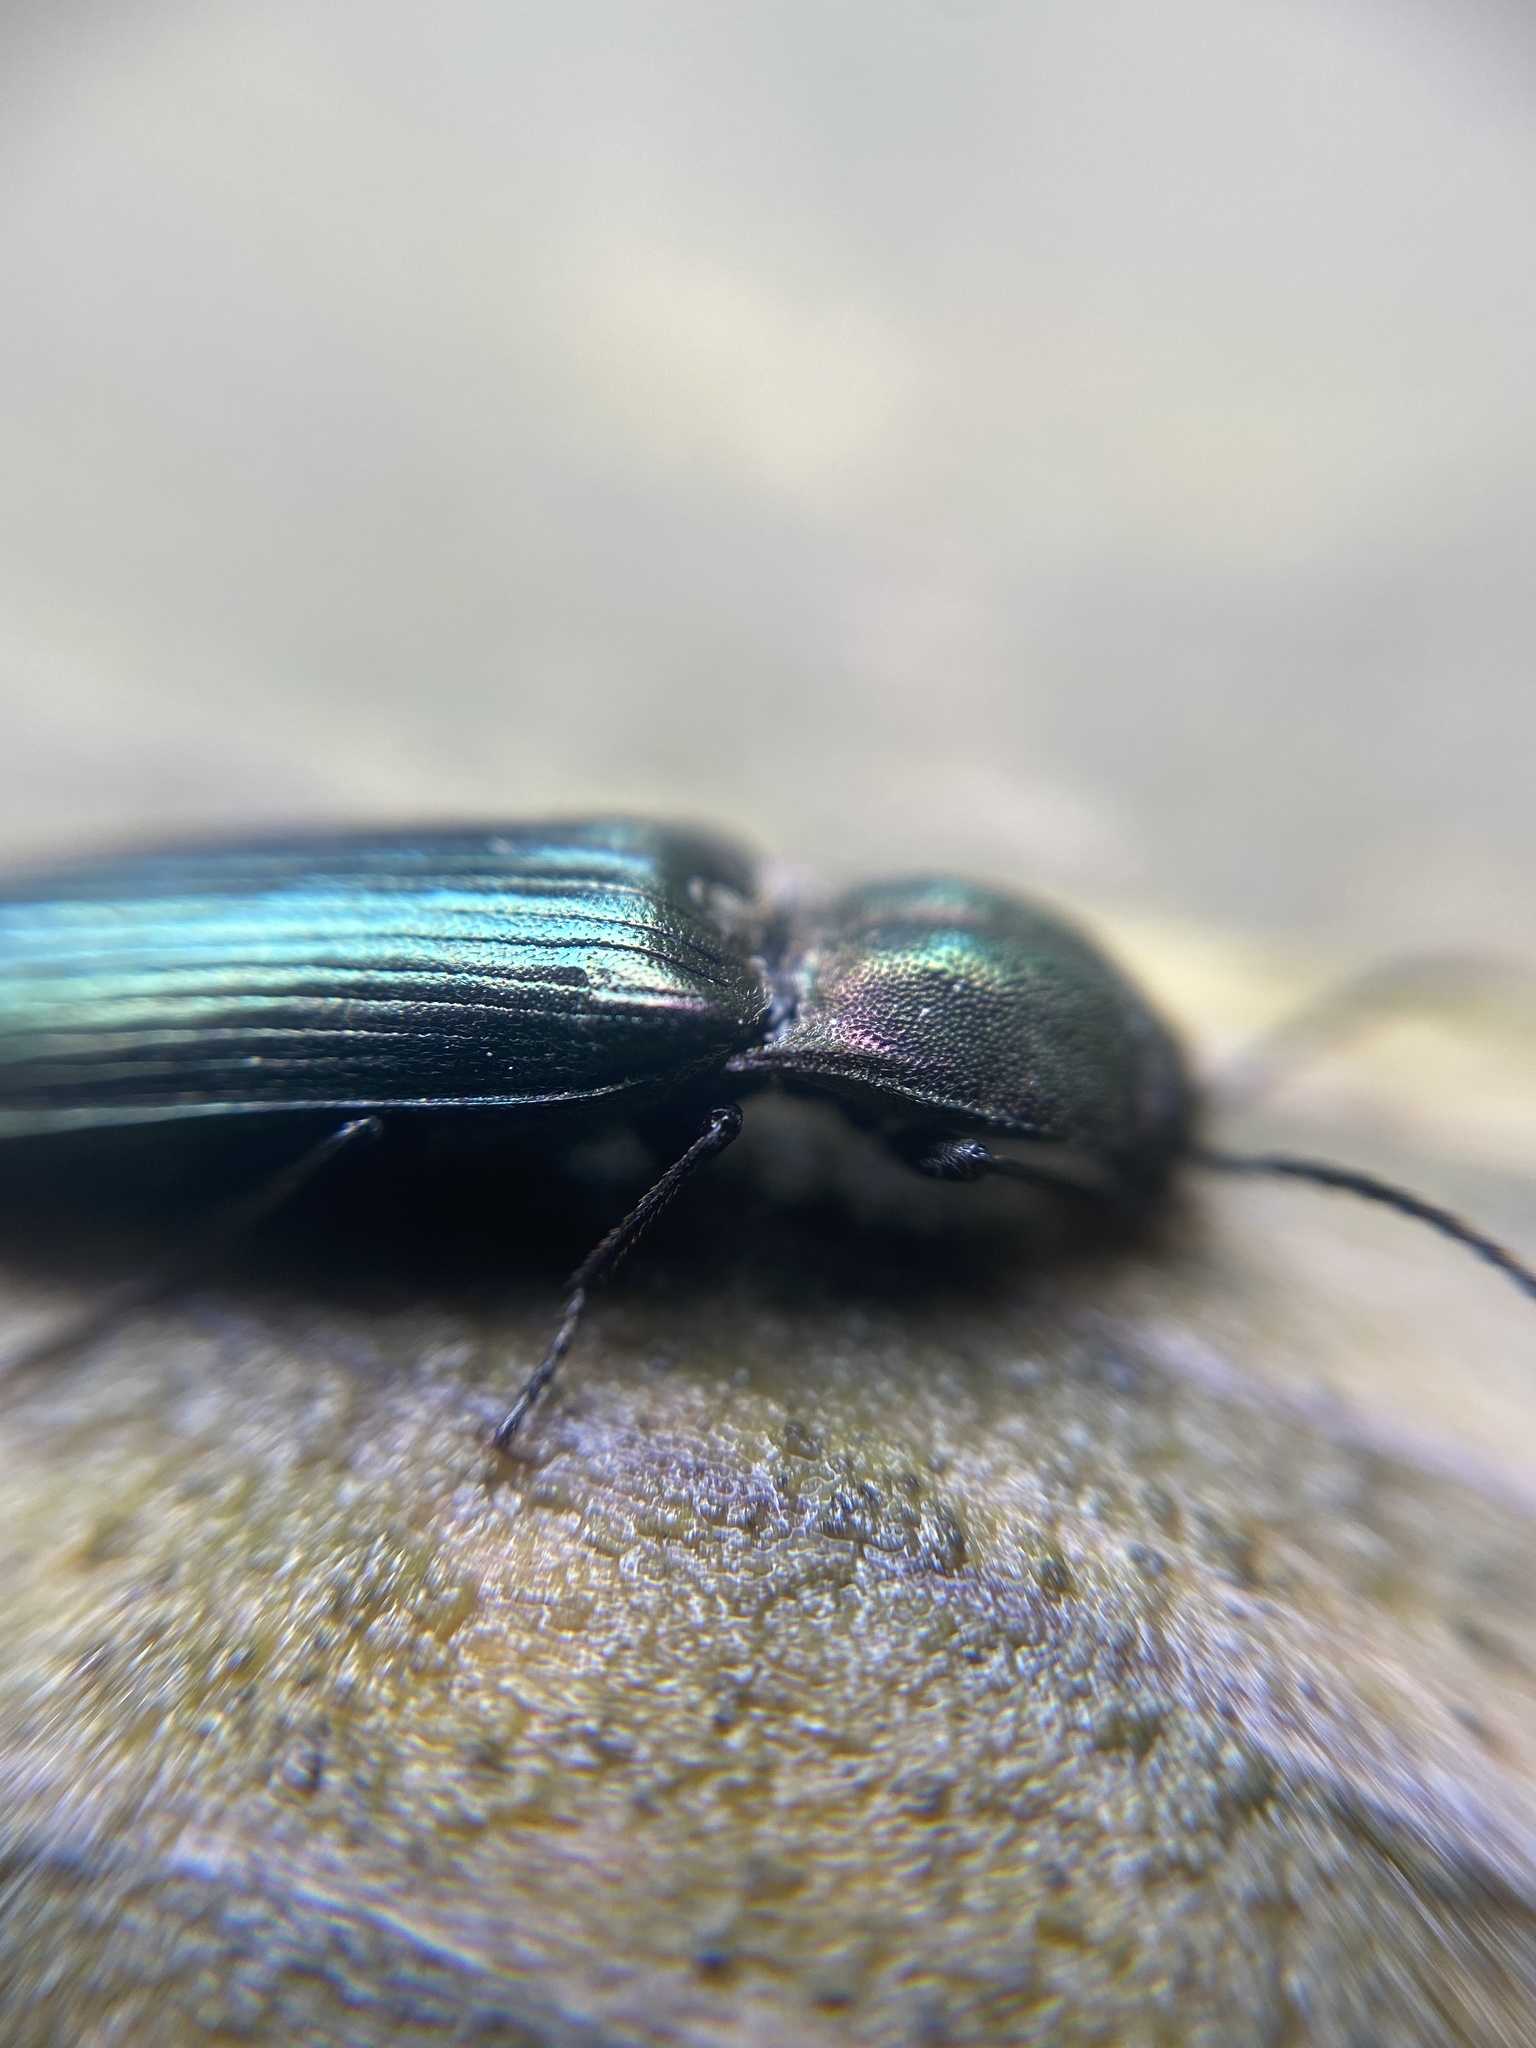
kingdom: Animalia
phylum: Arthropoda
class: Insecta
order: Coleoptera
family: Elateridae
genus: Ctenicera
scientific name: Ctenicera cuprea
